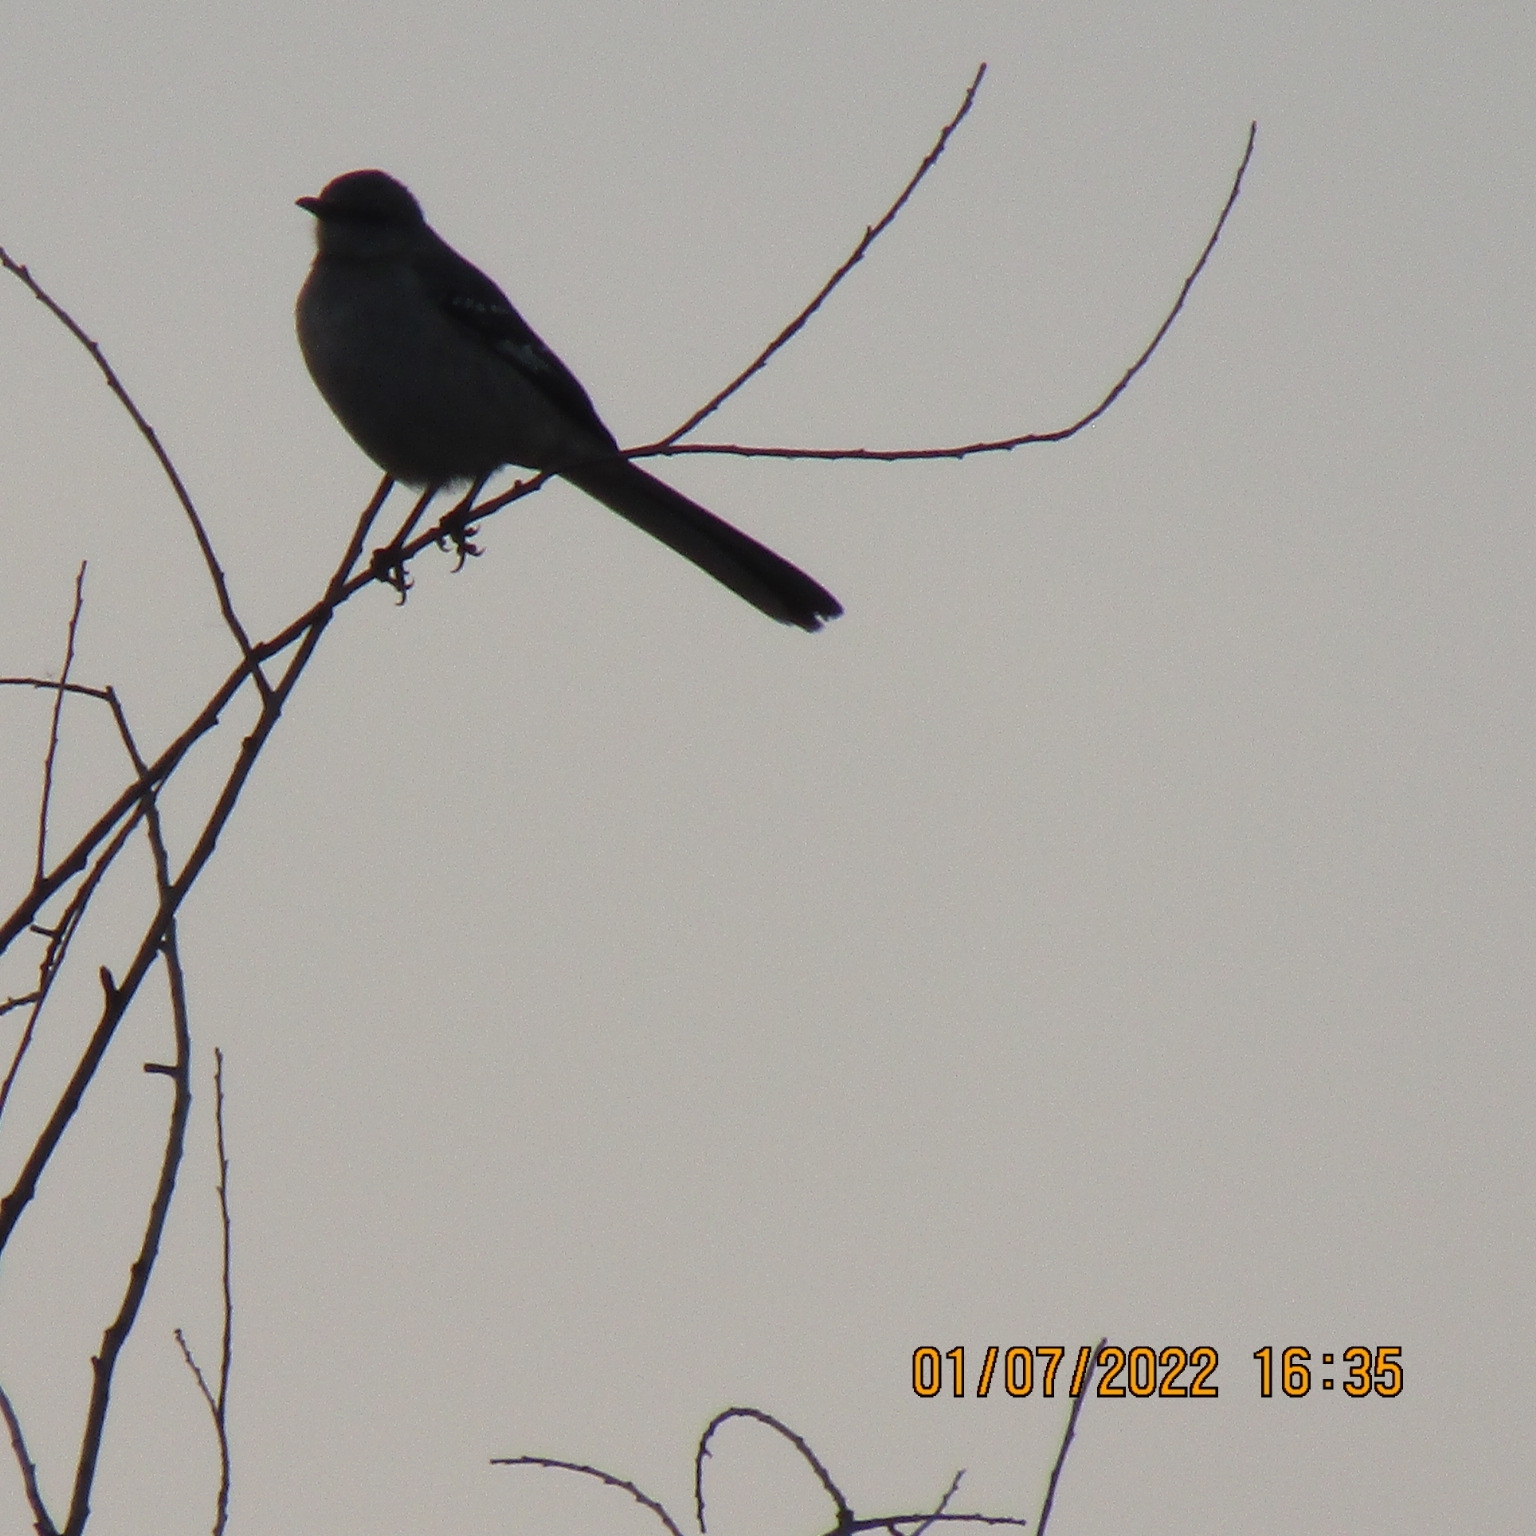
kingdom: Animalia
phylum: Chordata
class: Aves
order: Passeriformes
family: Mimidae
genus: Mimus
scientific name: Mimus polyglottos
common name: Northern mockingbird
